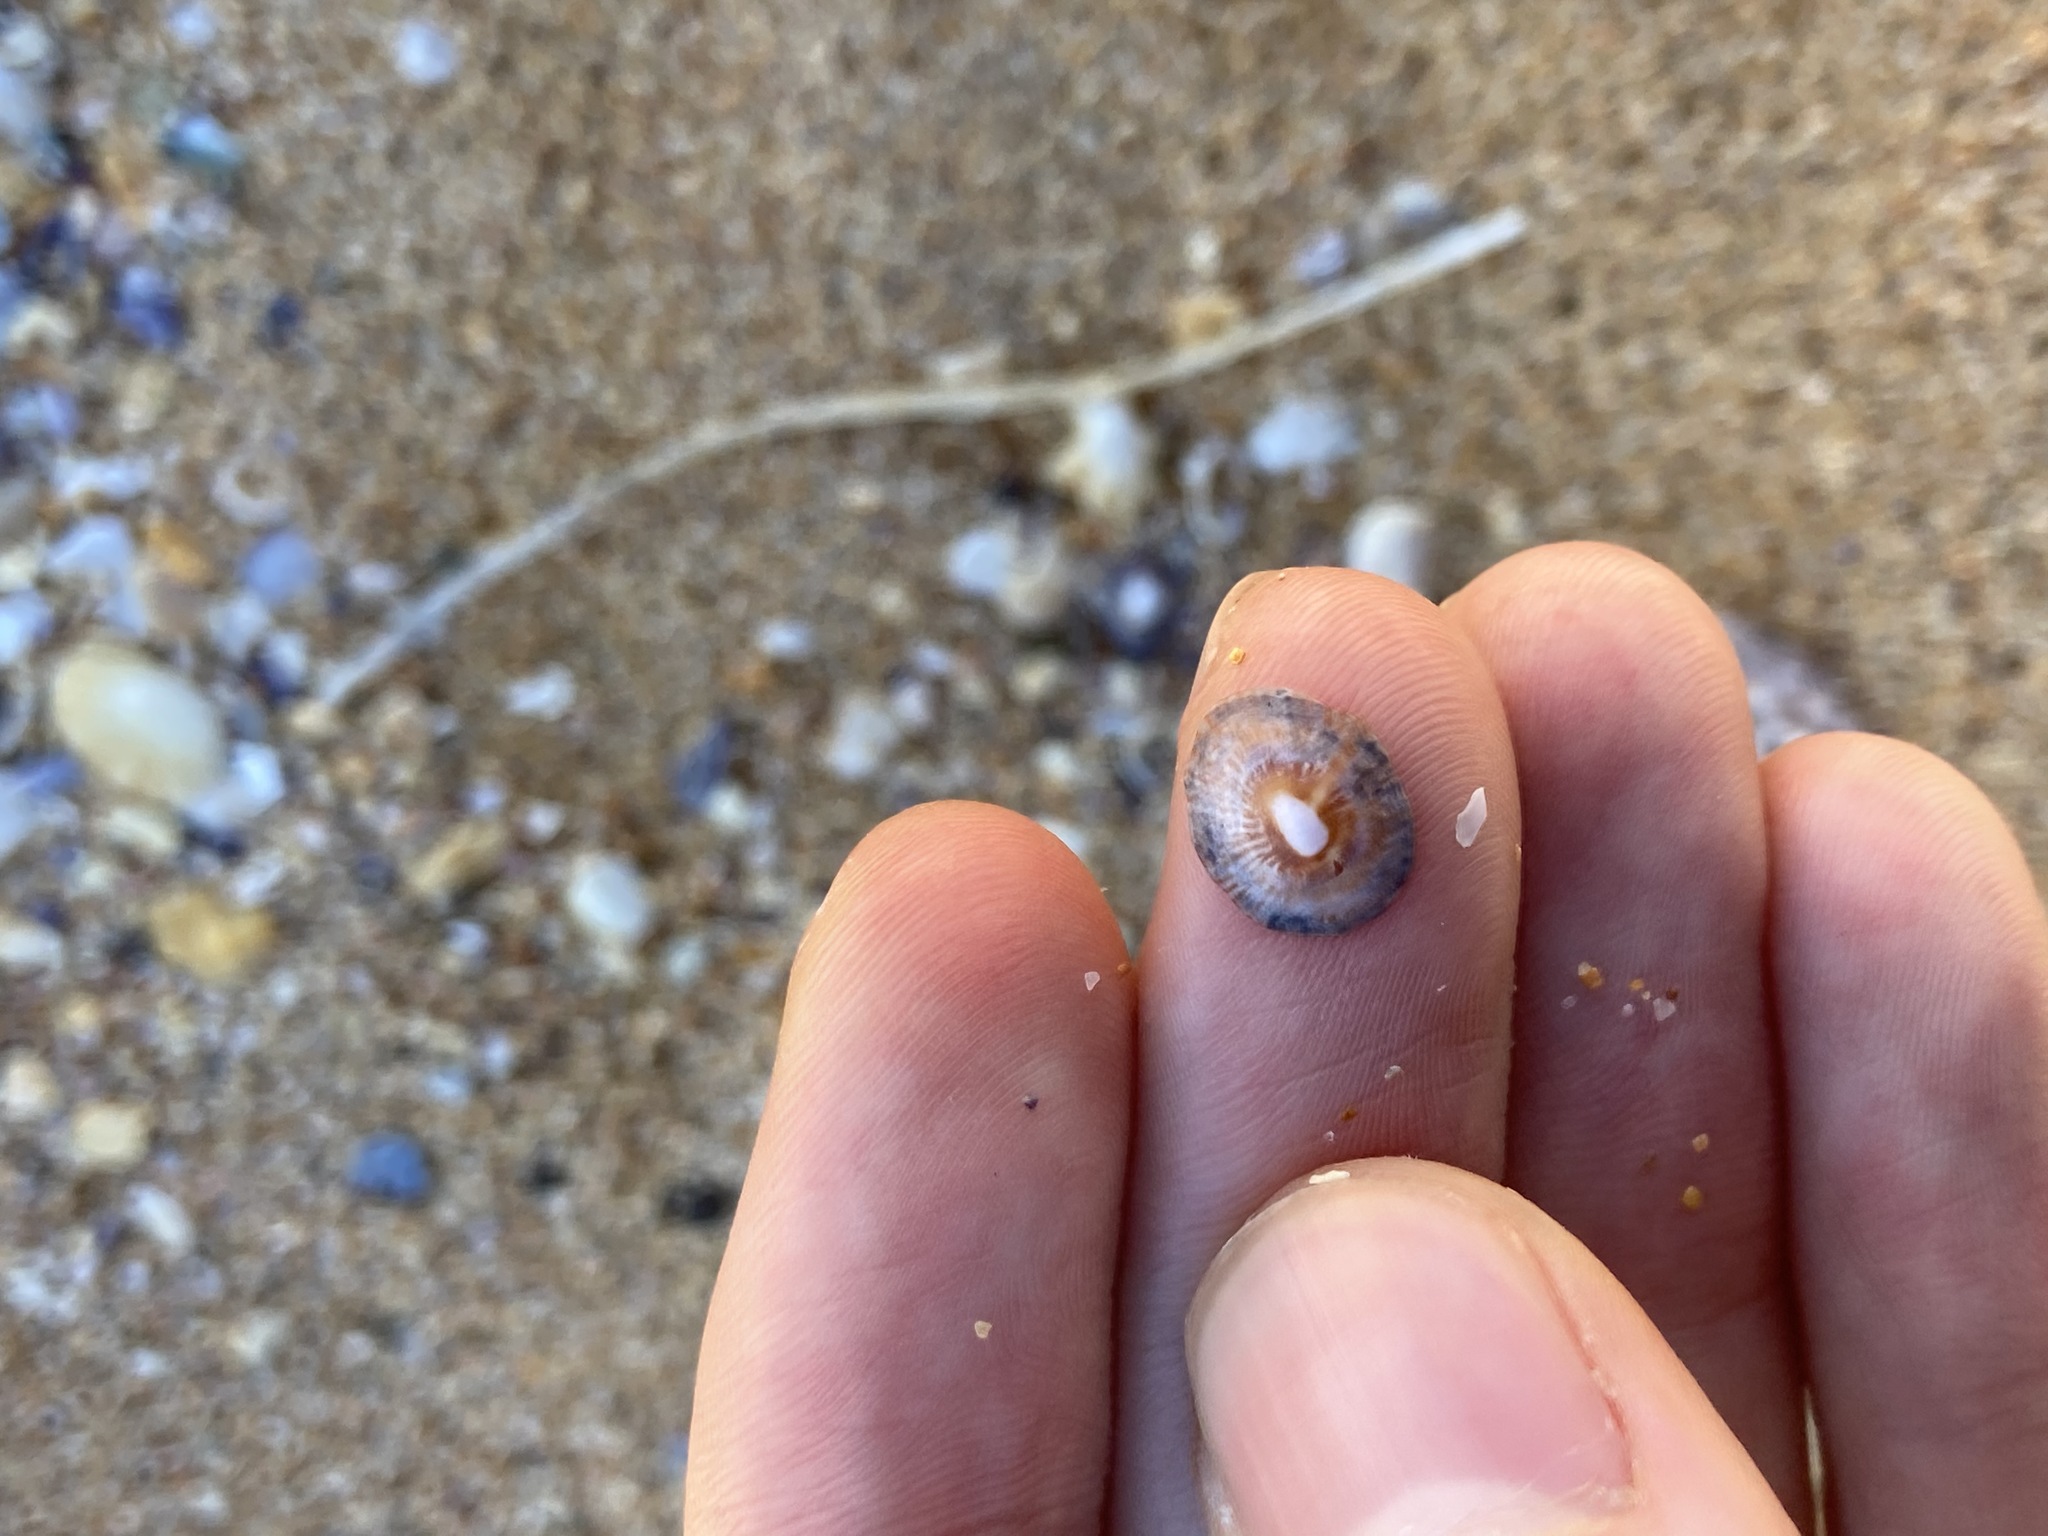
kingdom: Animalia
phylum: Mollusca
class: Gastropoda
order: Siphonariida
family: Siphonariidae
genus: Siphonaria
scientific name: Siphonaria funiculata
